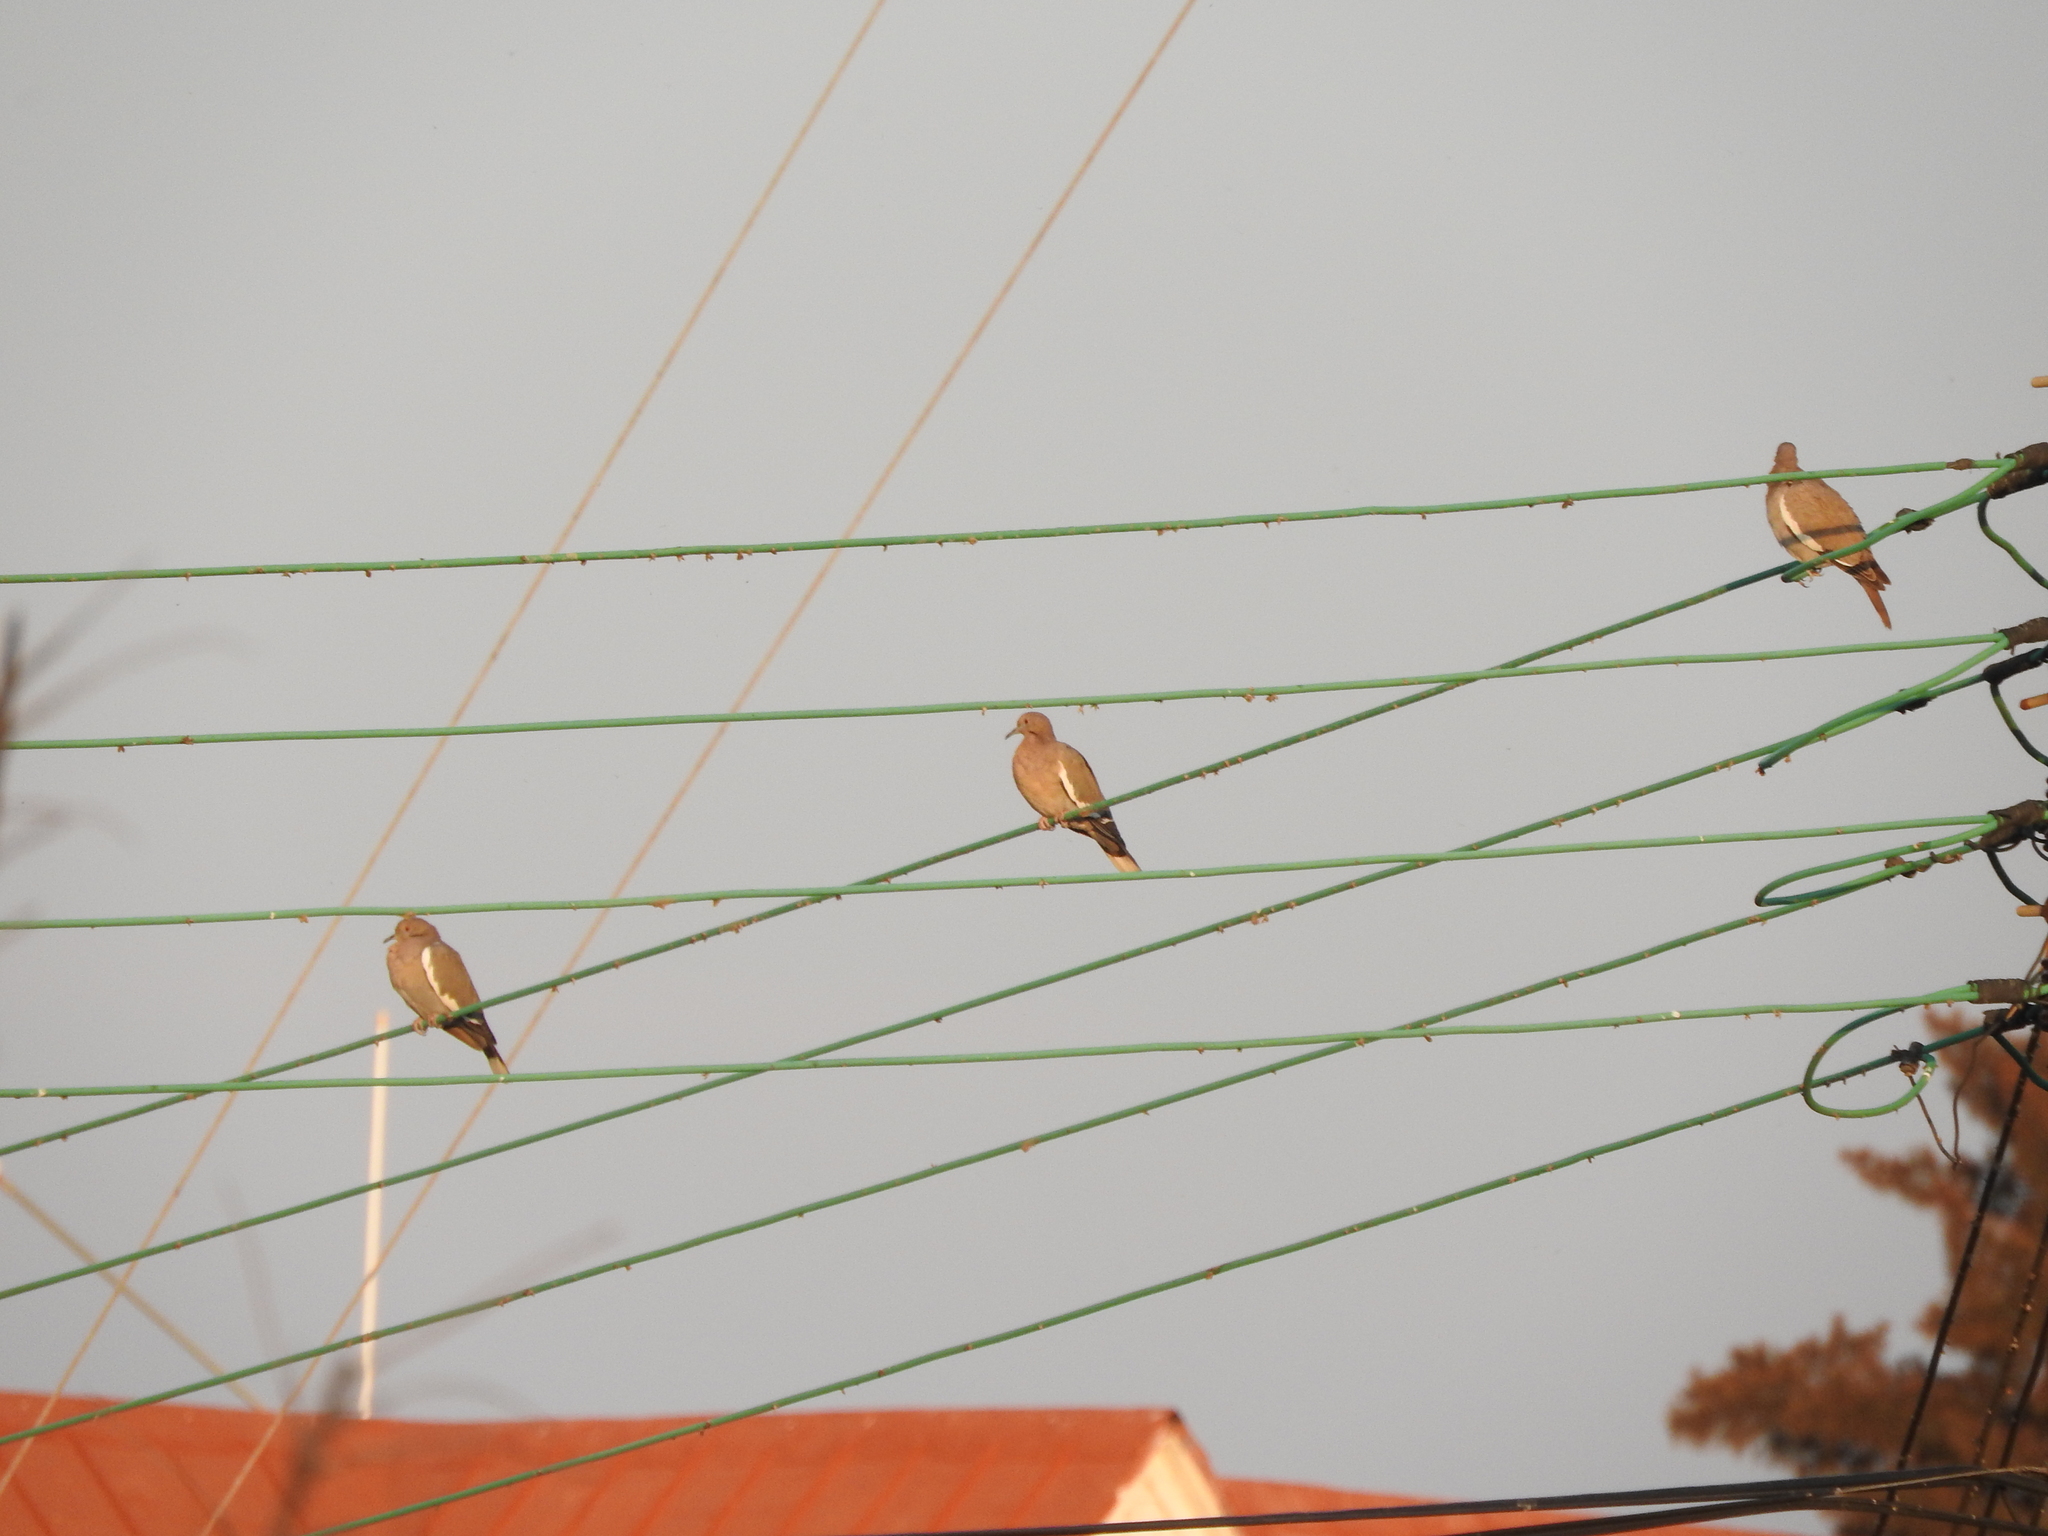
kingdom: Animalia
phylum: Chordata
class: Aves
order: Columbiformes
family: Columbidae
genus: Zenaida
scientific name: Zenaida asiatica
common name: White-winged dove
